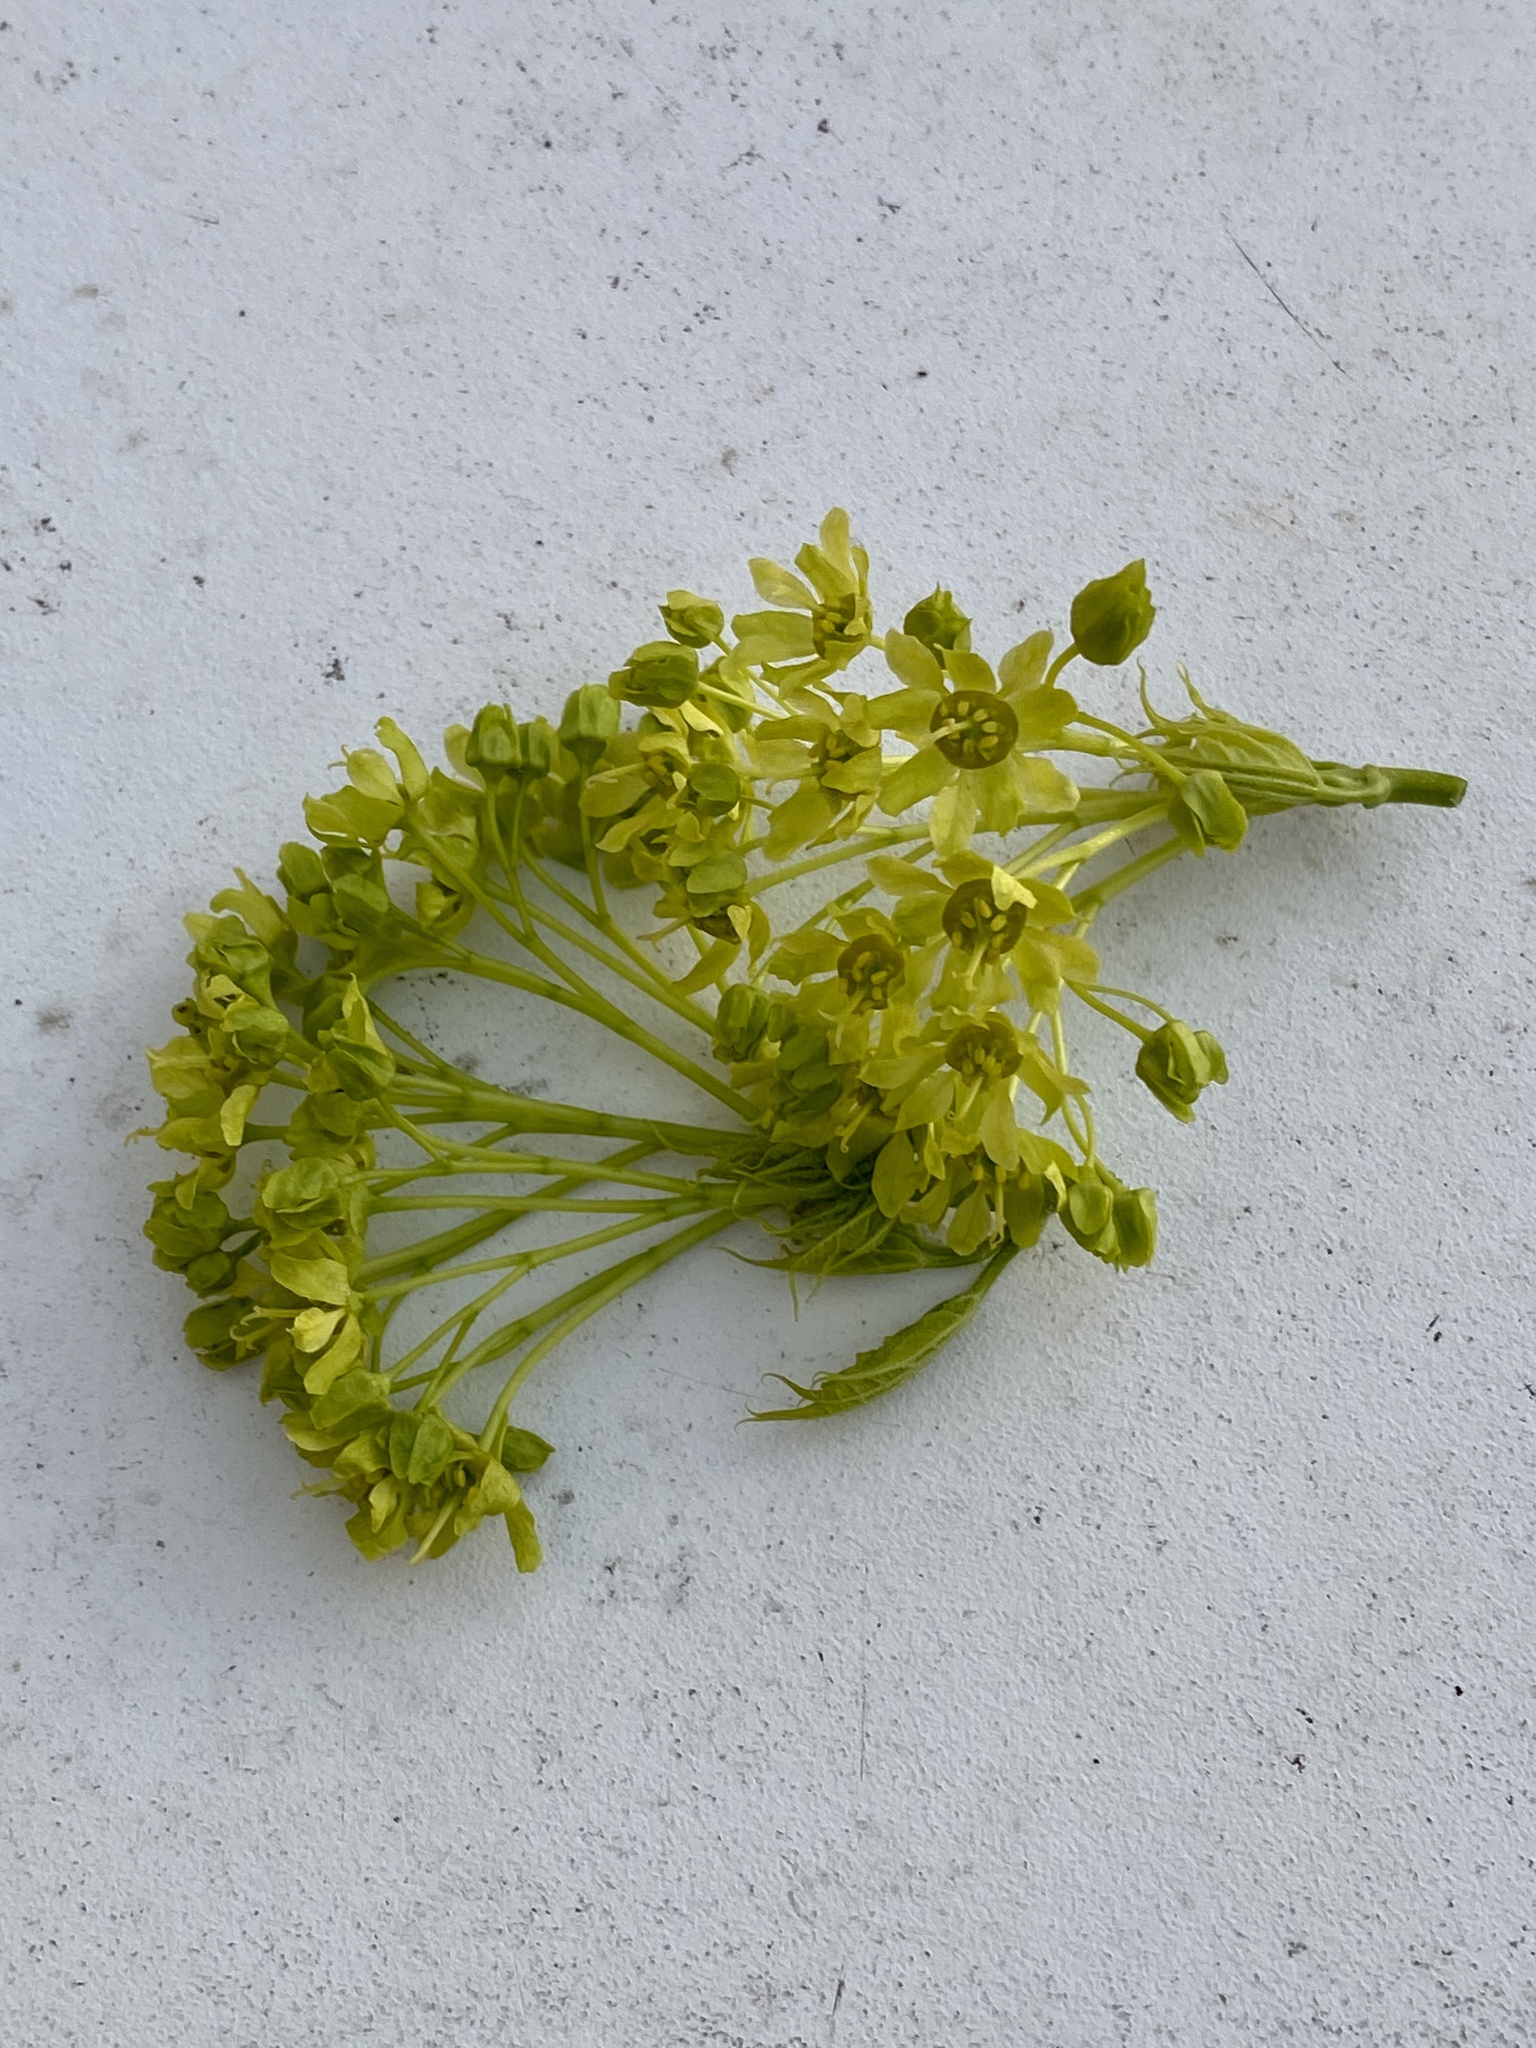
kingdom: Plantae
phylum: Tracheophyta
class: Magnoliopsida
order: Sapindales
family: Sapindaceae
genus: Acer
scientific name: Acer platanoides
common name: Norway maple
